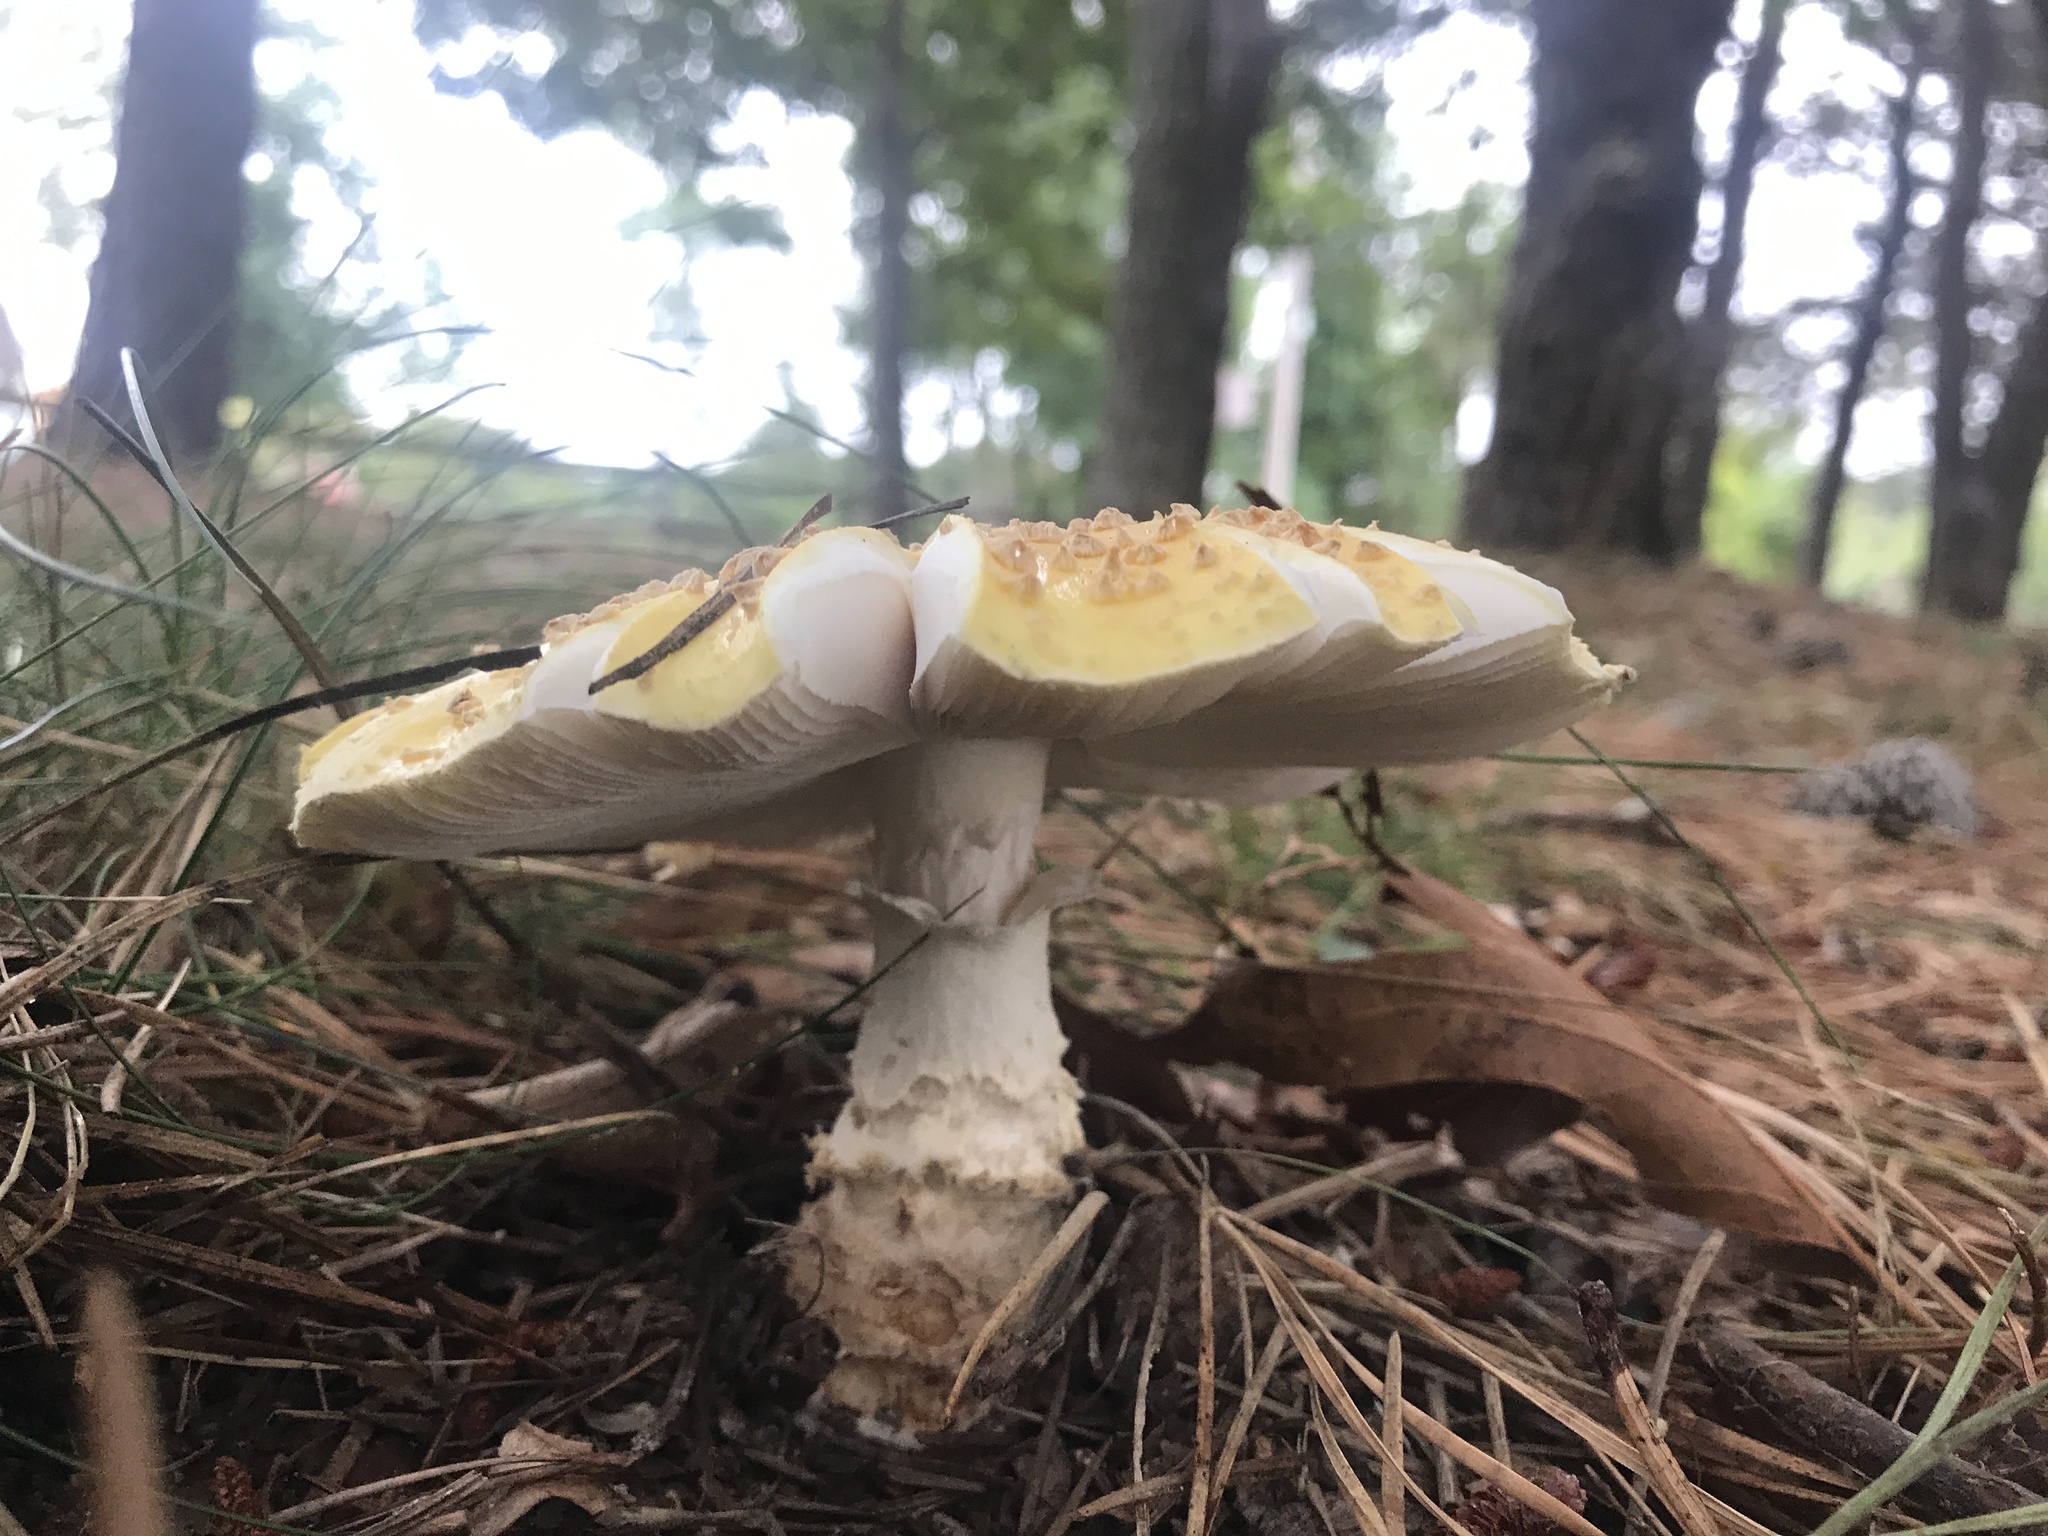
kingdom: Fungi
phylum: Basidiomycota
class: Agaricomycetes
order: Agaricales
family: Amanitaceae
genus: Amanita
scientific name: Amanita muscaria
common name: Fly agaric
